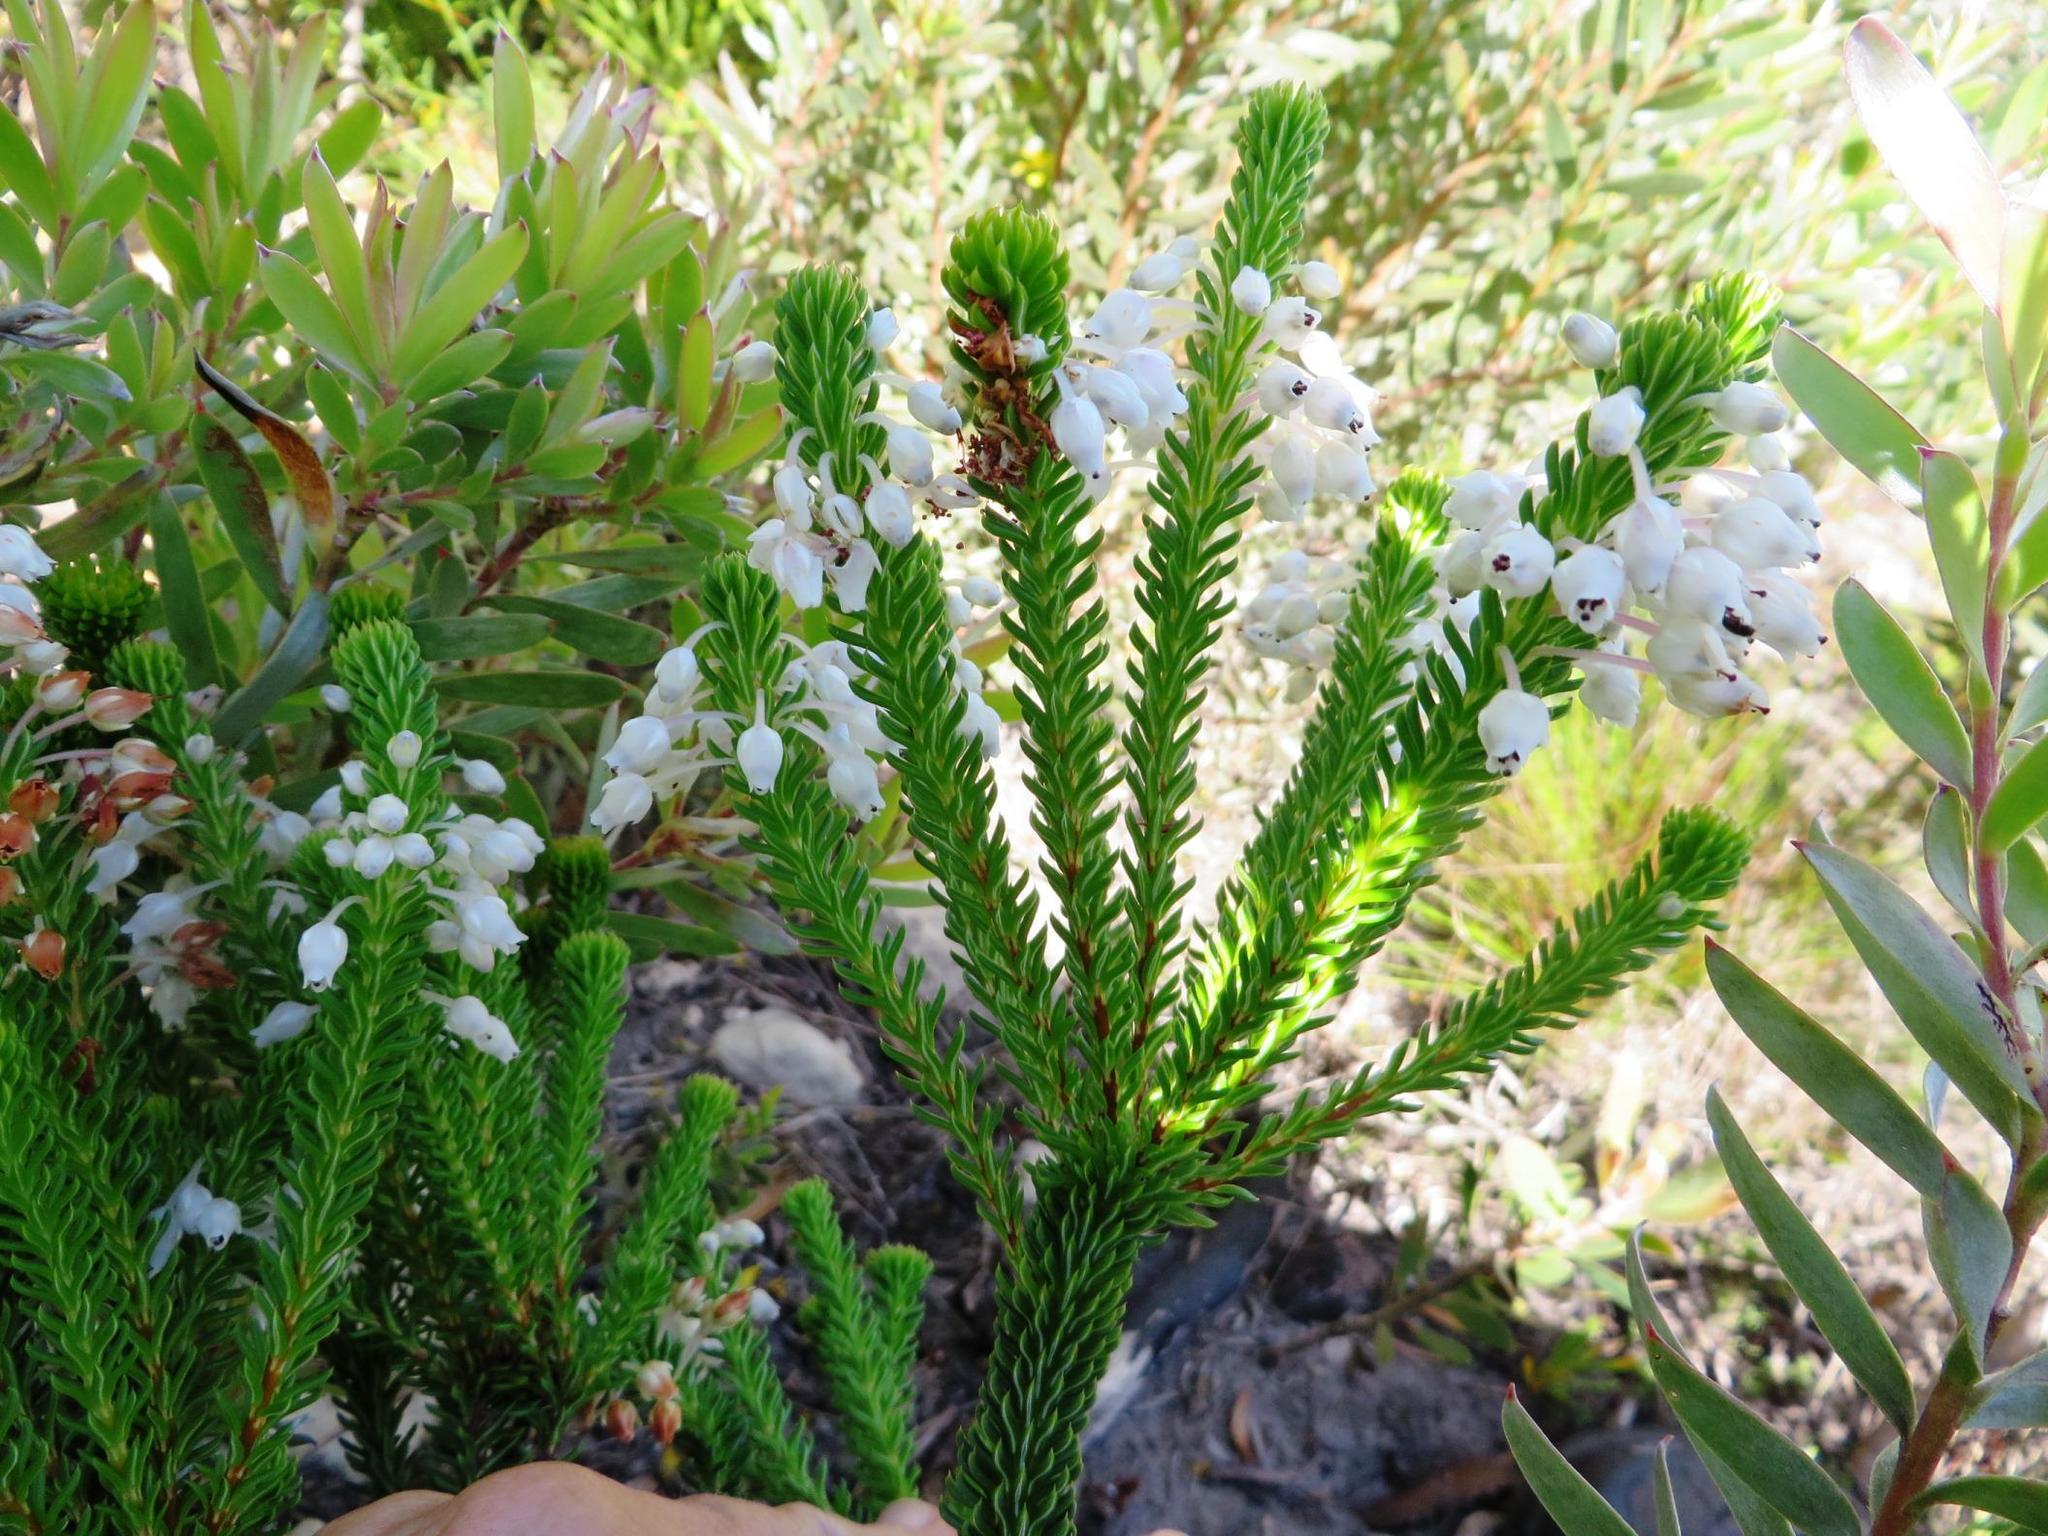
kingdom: Plantae
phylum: Tracheophyta
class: Magnoliopsida
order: Ericales
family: Ericaceae
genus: Erica
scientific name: Erica pulvinata
